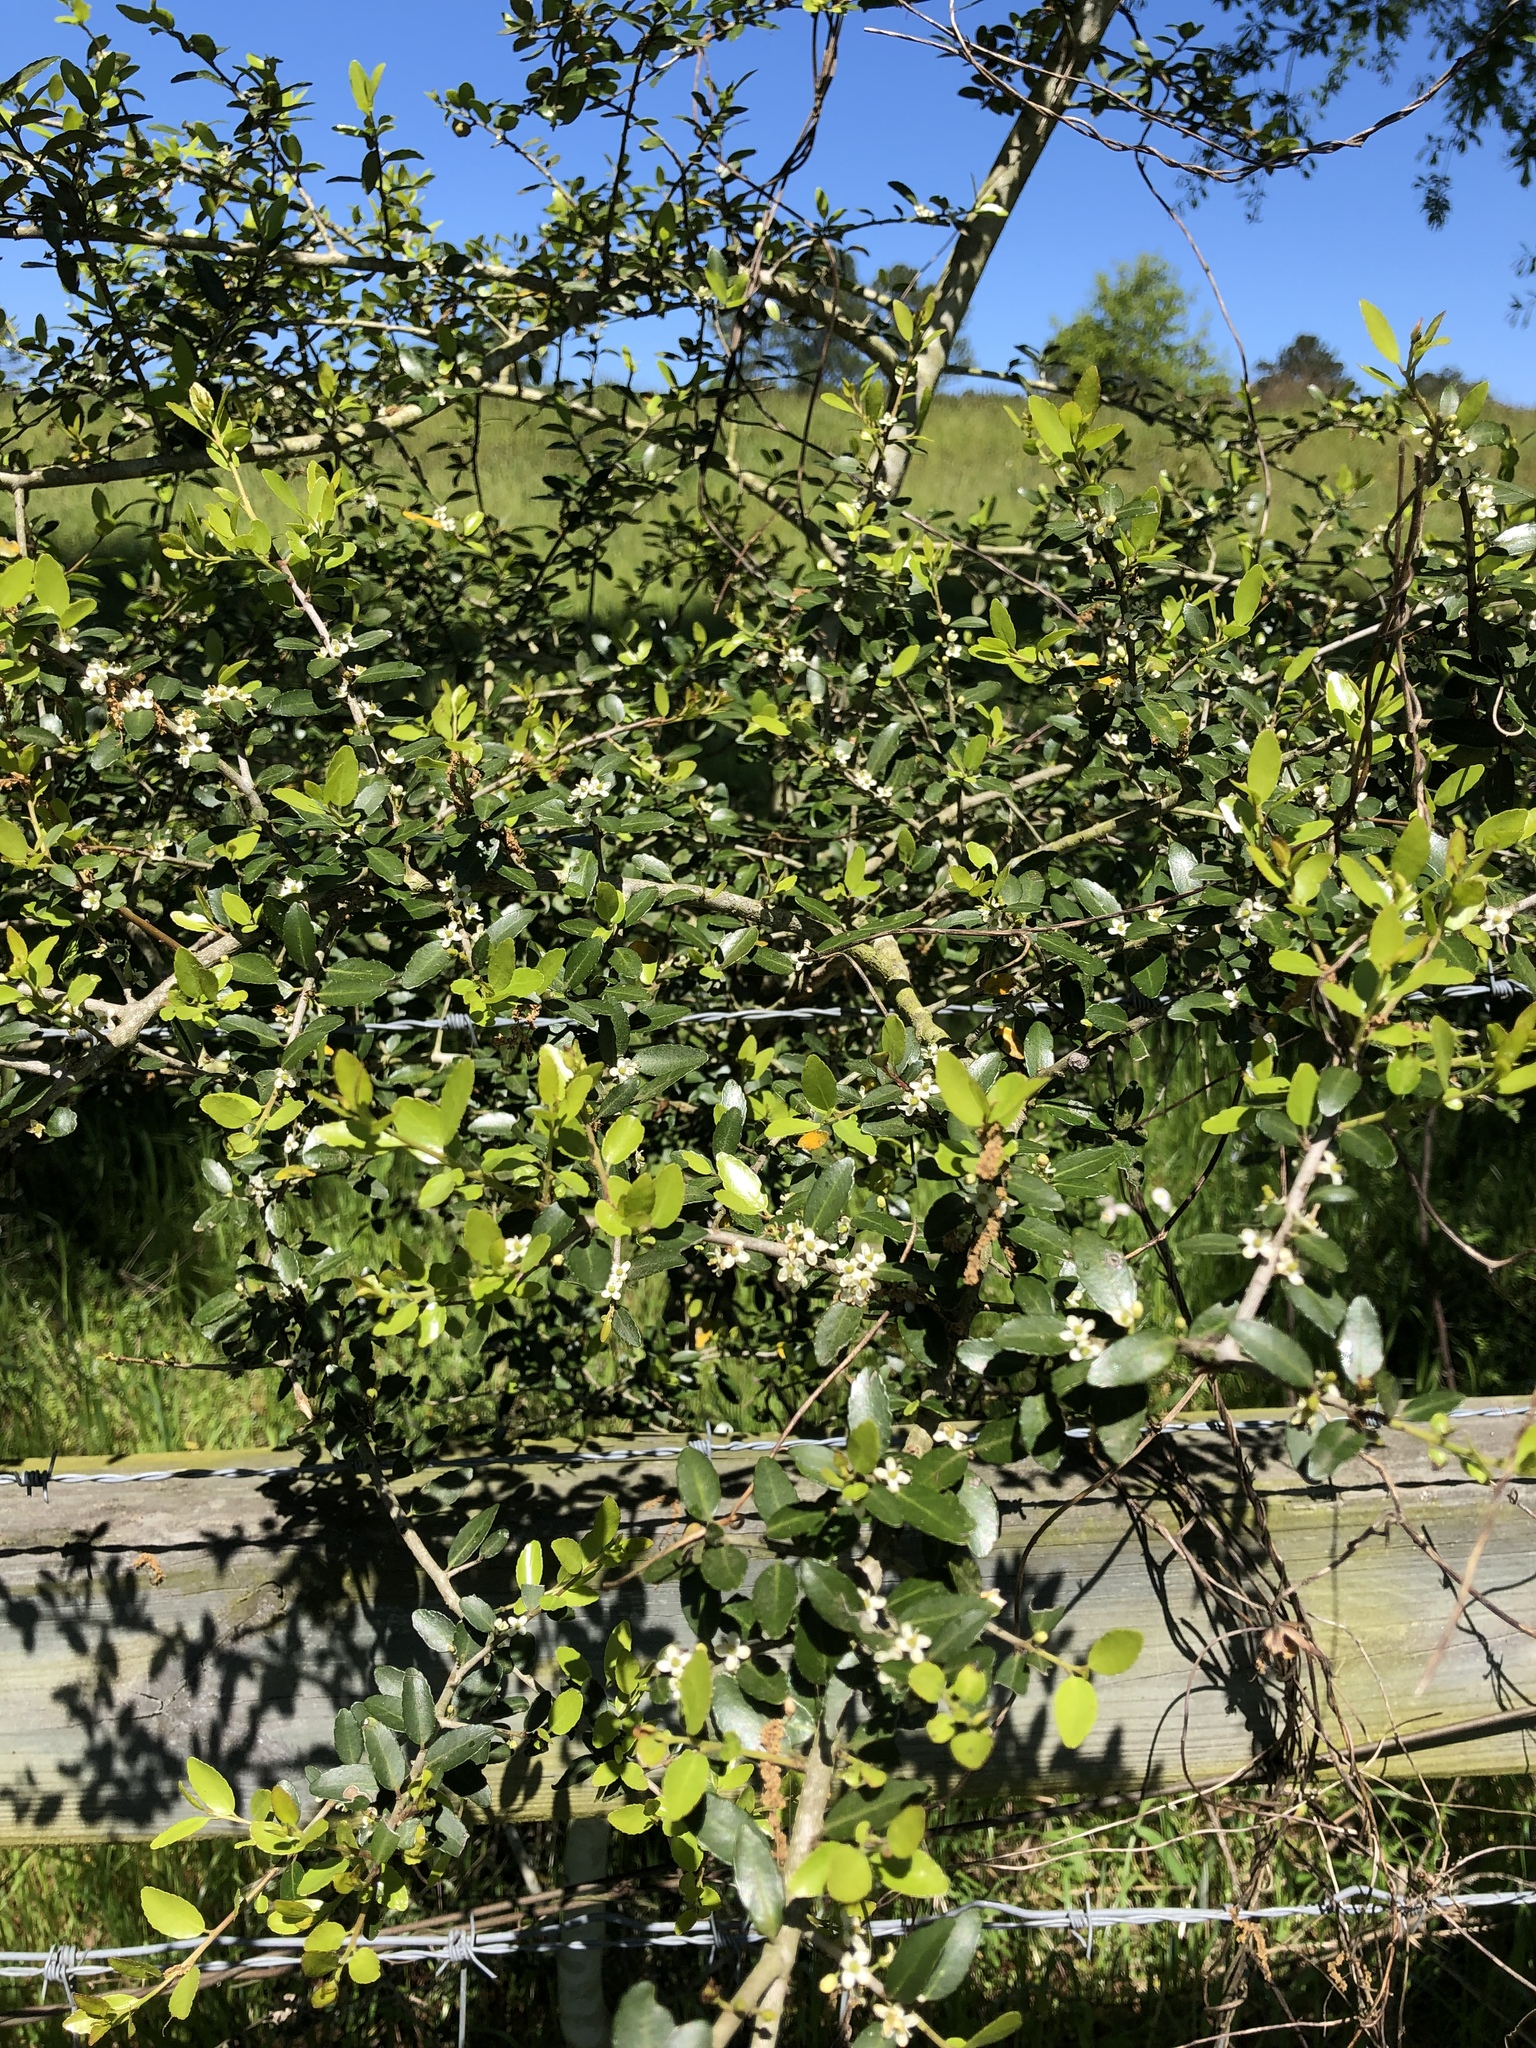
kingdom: Plantae
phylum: Tracheophyta
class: Magnoliopsida
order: Aquifoliales
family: Aquifoliaceae
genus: Ilex
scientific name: Ilex vomitoria
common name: Yaupon holly
